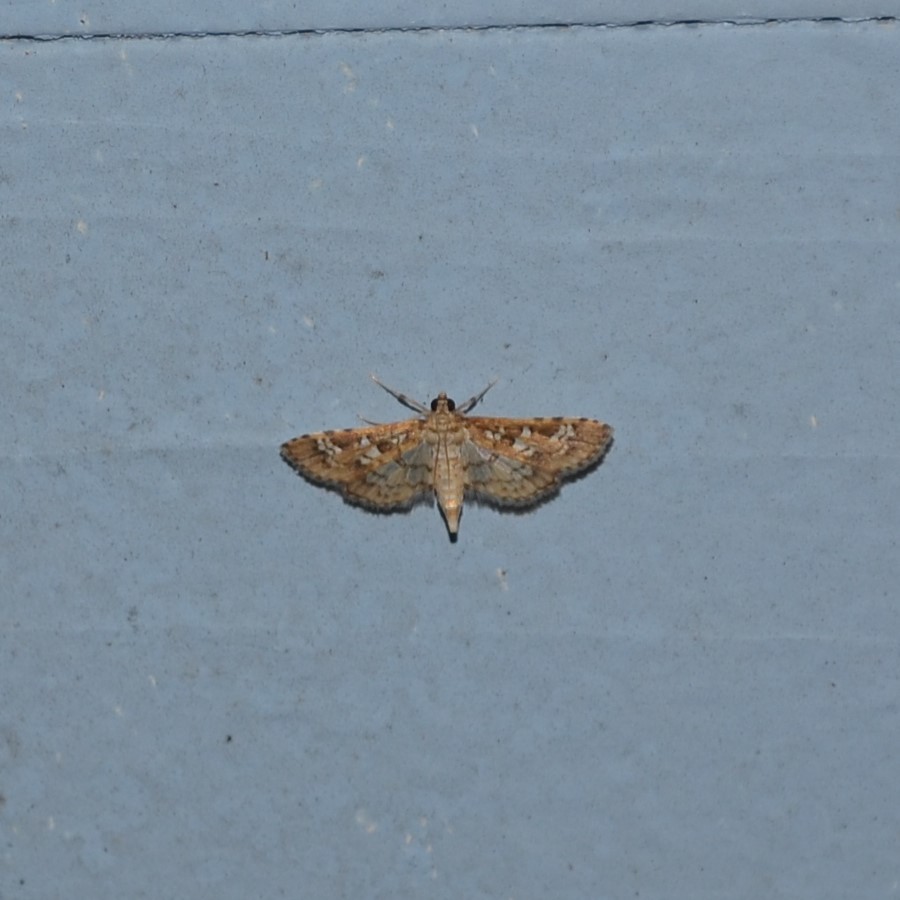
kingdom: Animalia
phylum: Arthropoda
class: Insecta
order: Lepidoptera
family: Crambidae
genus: Samea
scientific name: Samea multiplicalis
